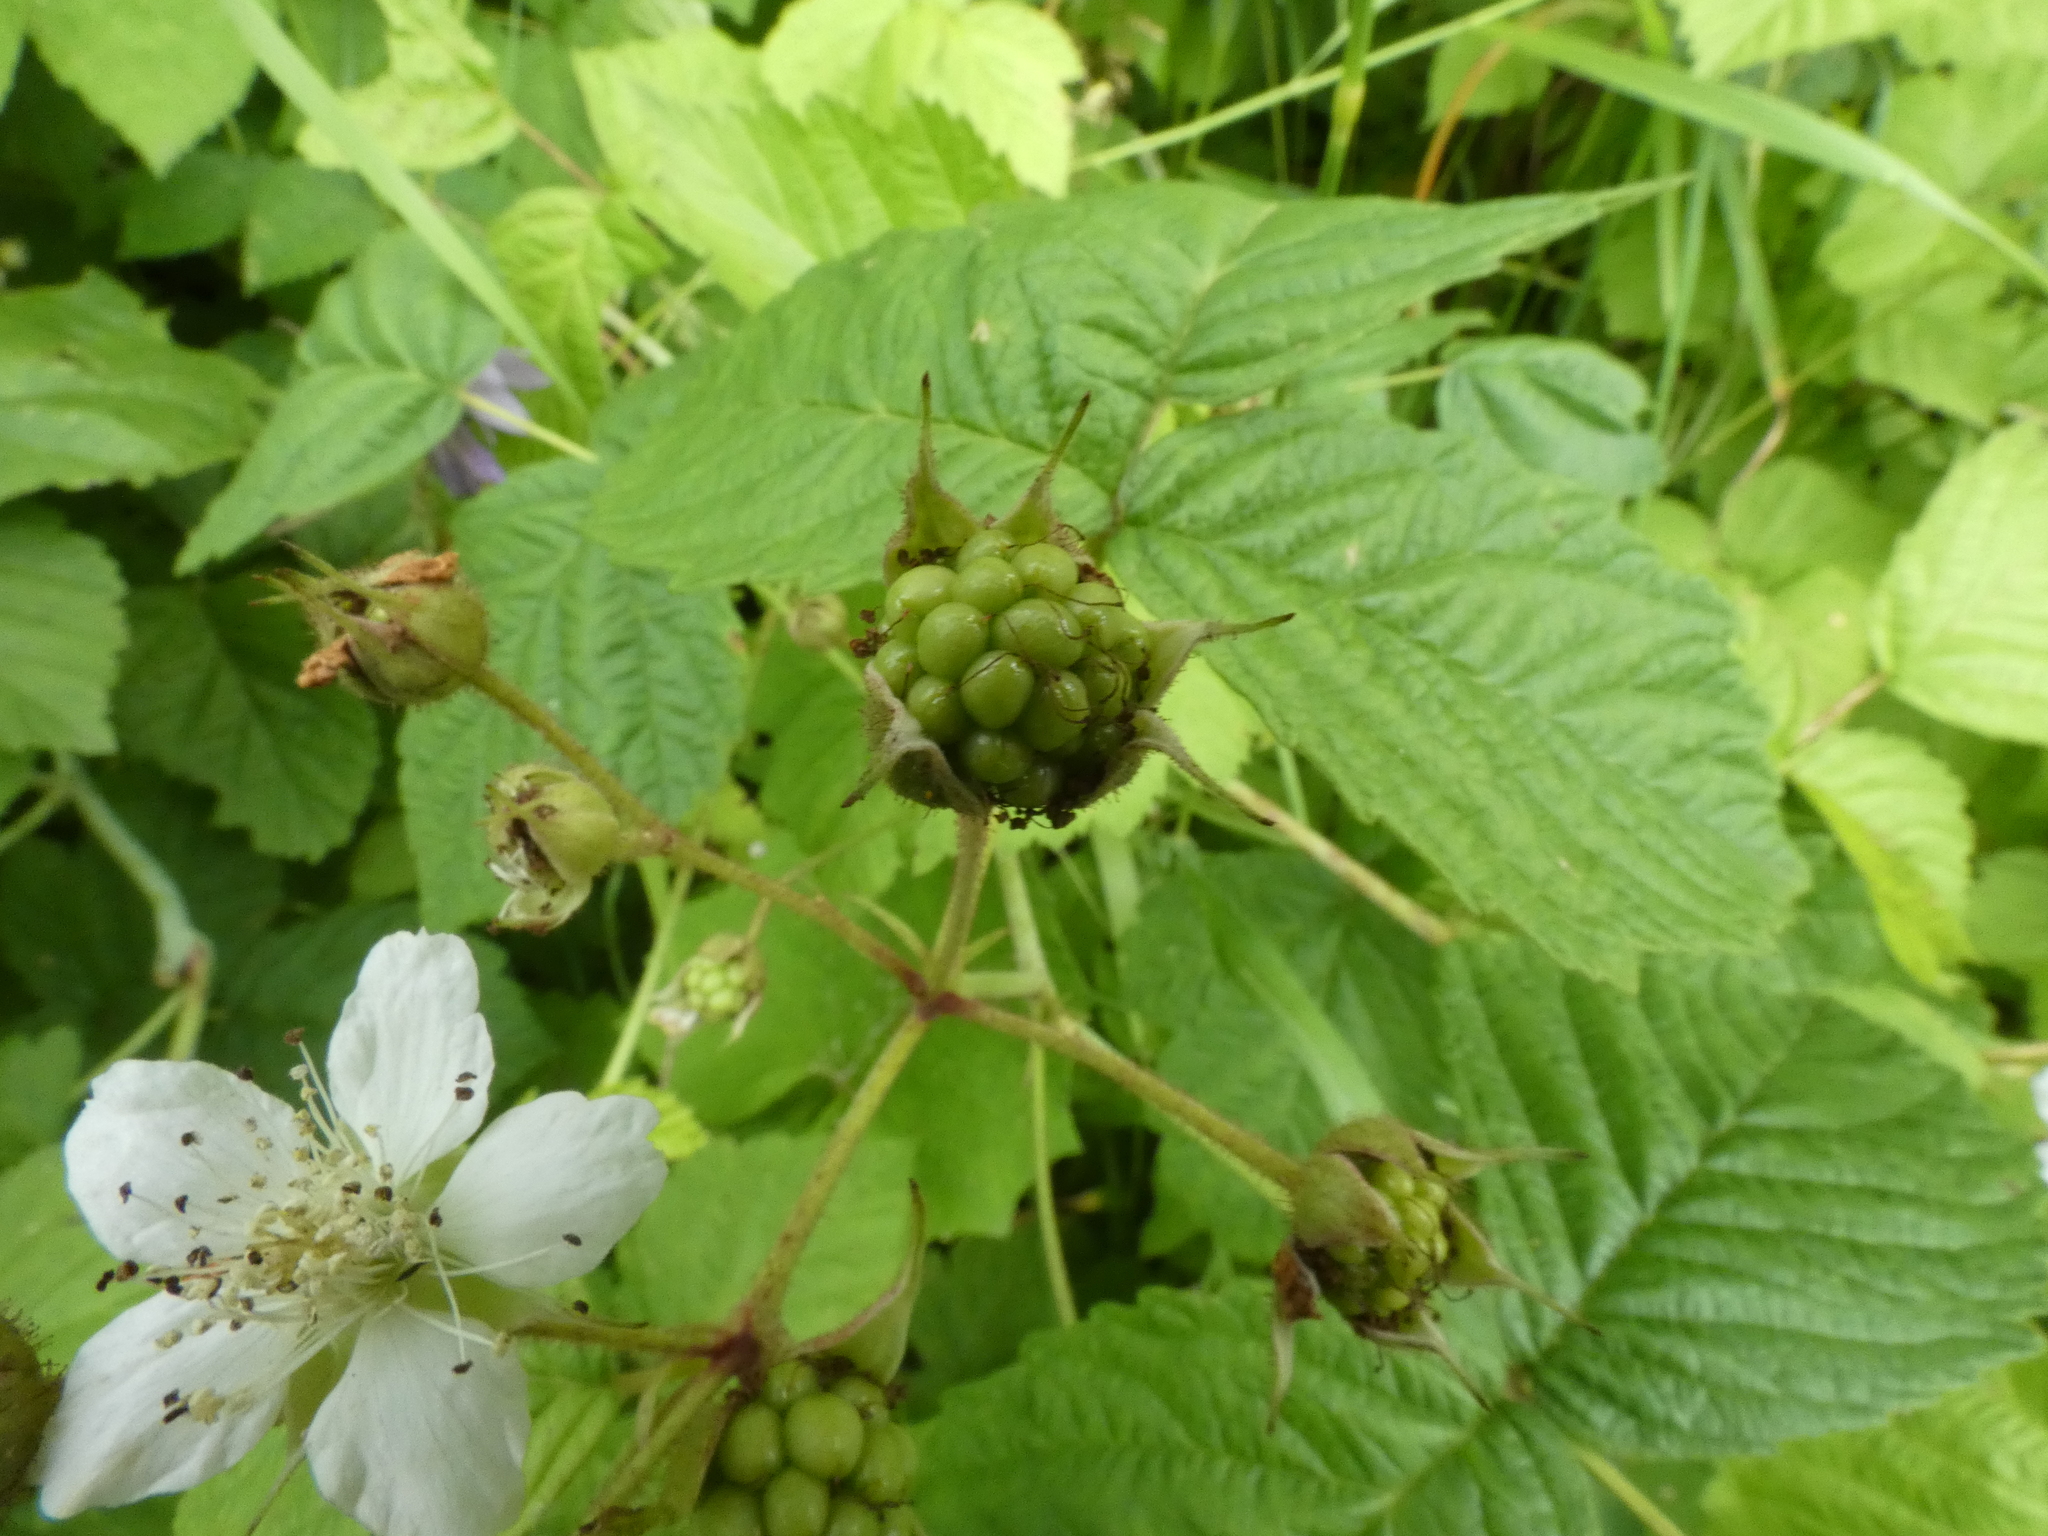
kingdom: Plantae
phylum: Tracheophyta
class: Magnoliopsida
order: Rosales
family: Rosaceae
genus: Rubus
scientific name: Rubus caesius
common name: Dewberry
